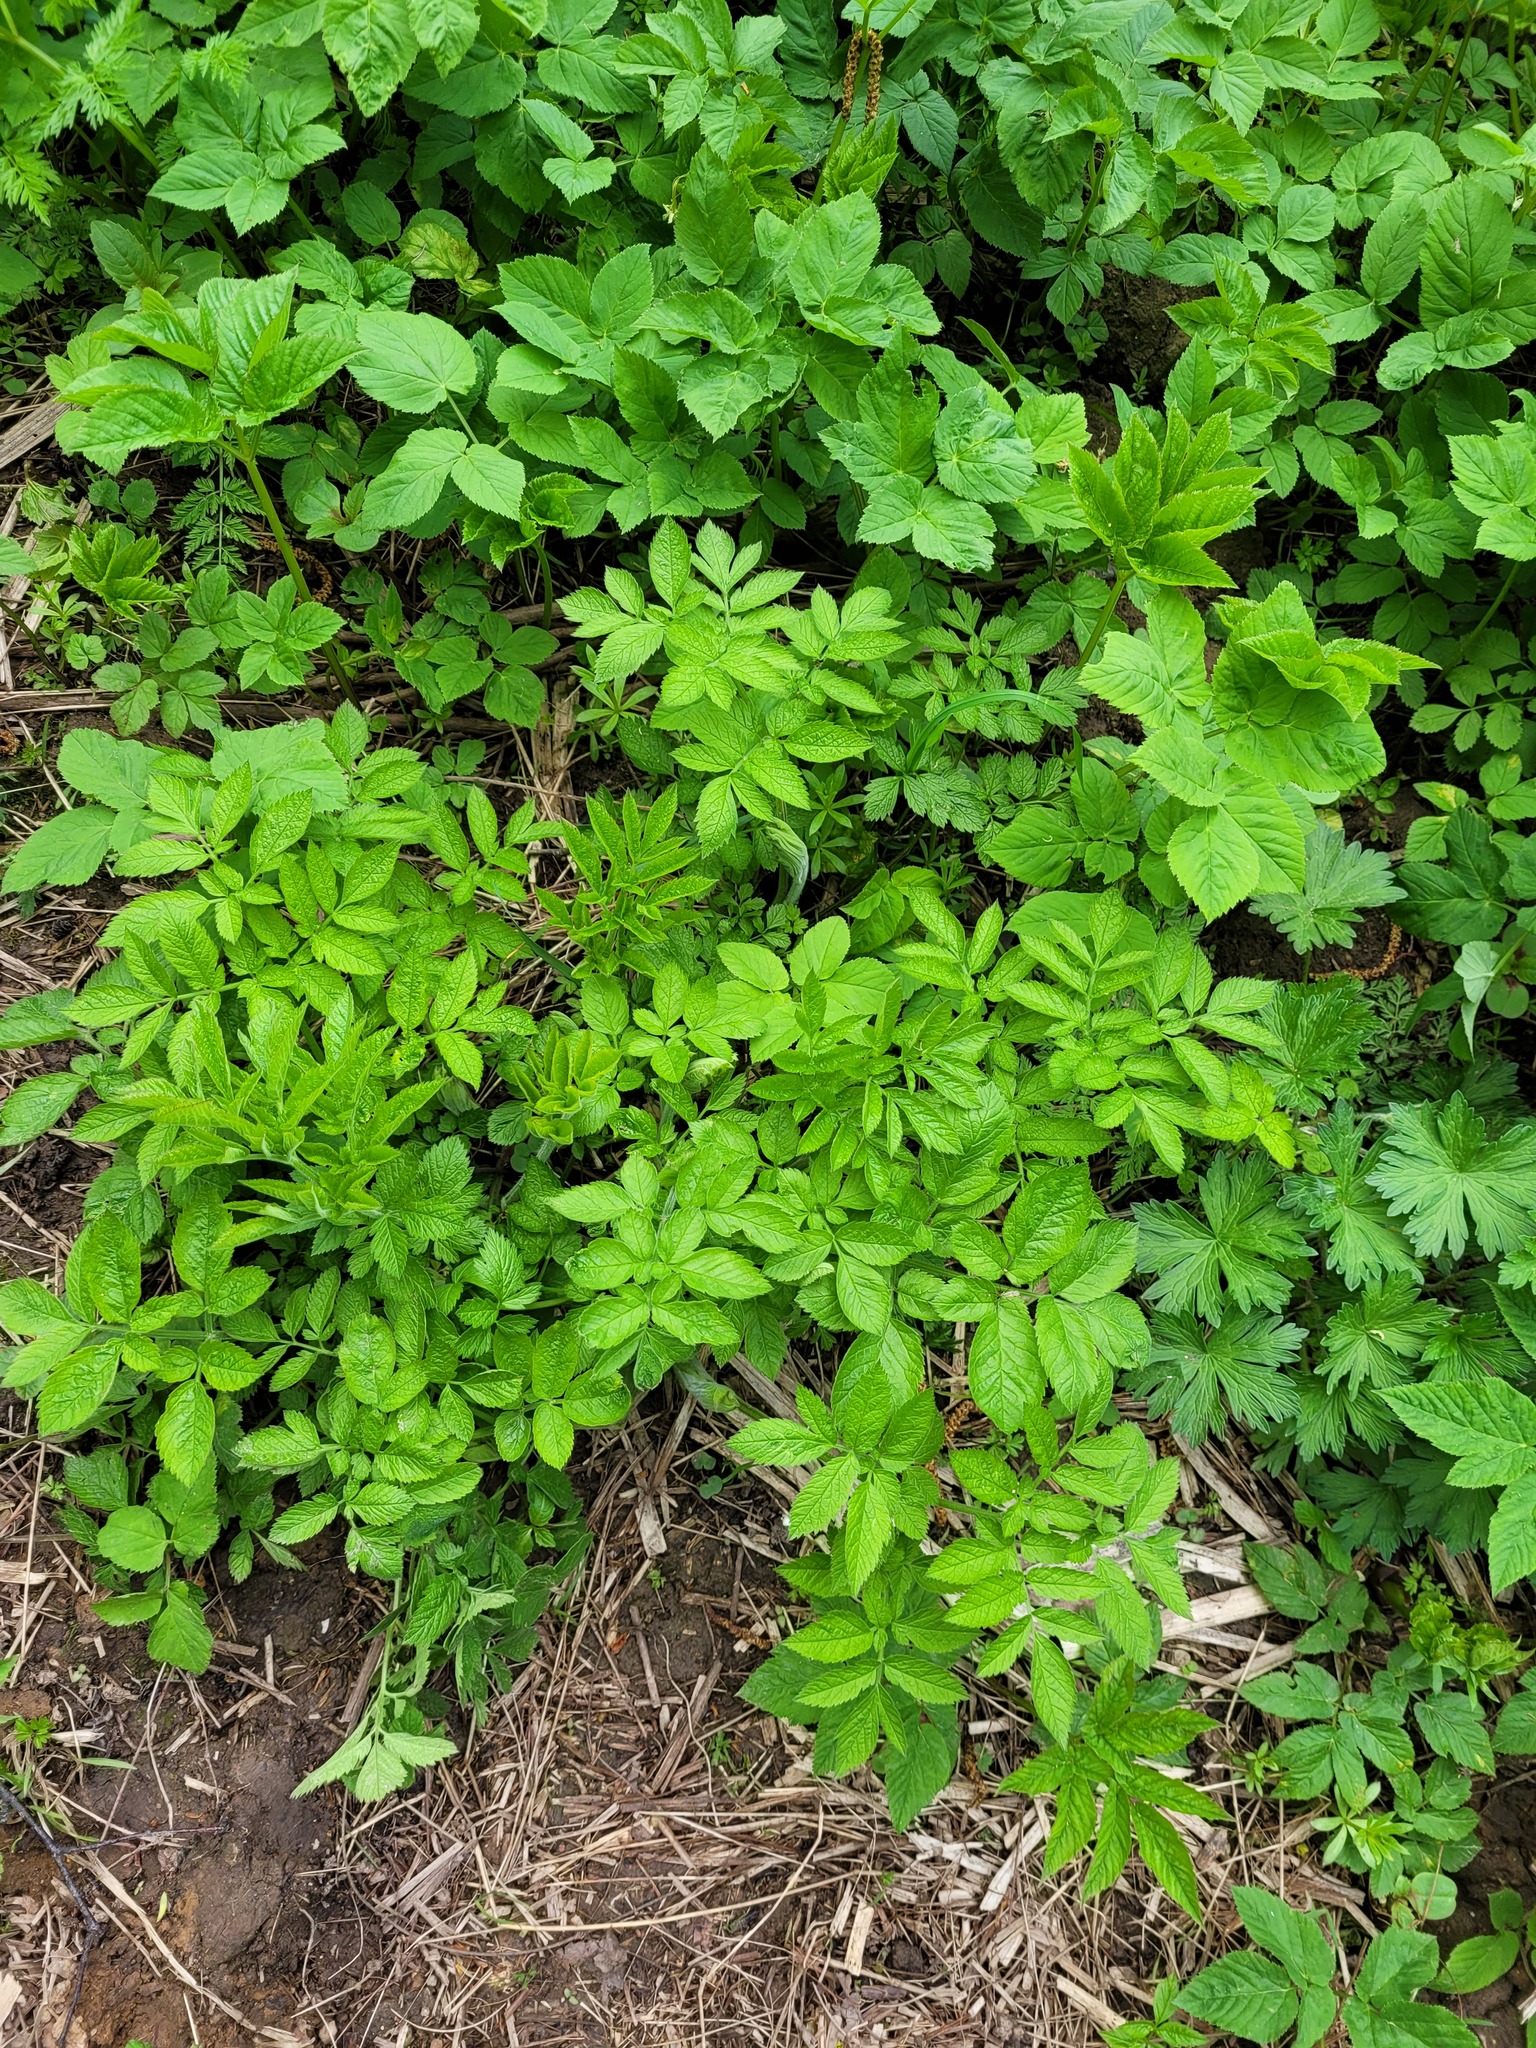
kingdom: Plantae
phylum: Tracheophyta
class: Magnoliopsida
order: Apiales
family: Apiaceae
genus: Chaerophyllum
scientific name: Chaerophyllum aromaticum
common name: Broadleaf chervil
